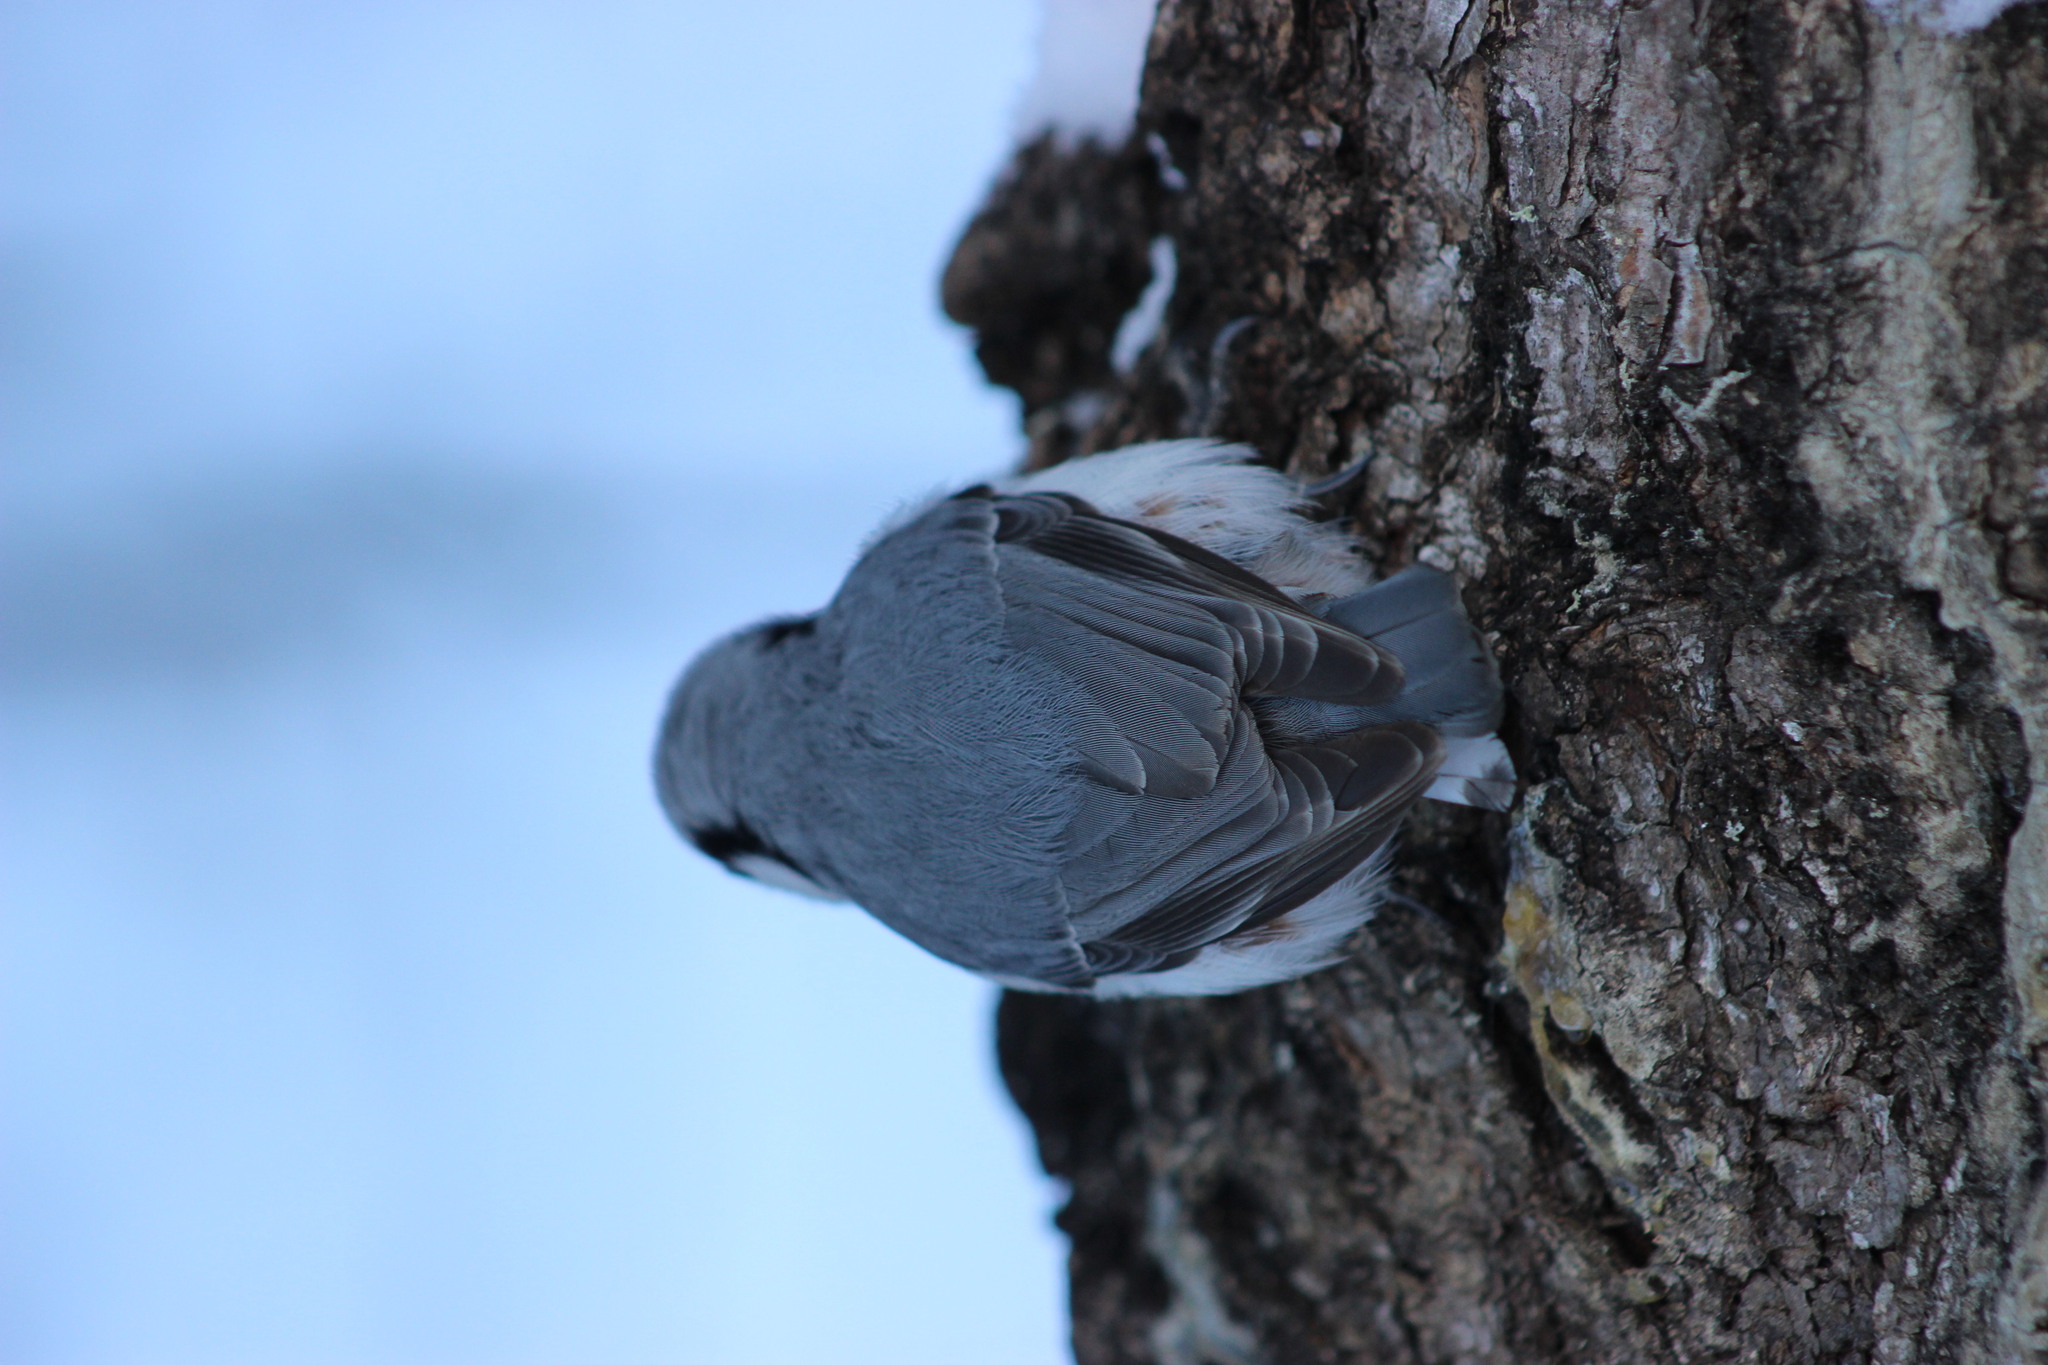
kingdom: Animalia
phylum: Chordata
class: Aves
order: Passeriformes
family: Sittidae
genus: Sitta
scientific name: Sitta europaea
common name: Eurasian nuthatch
